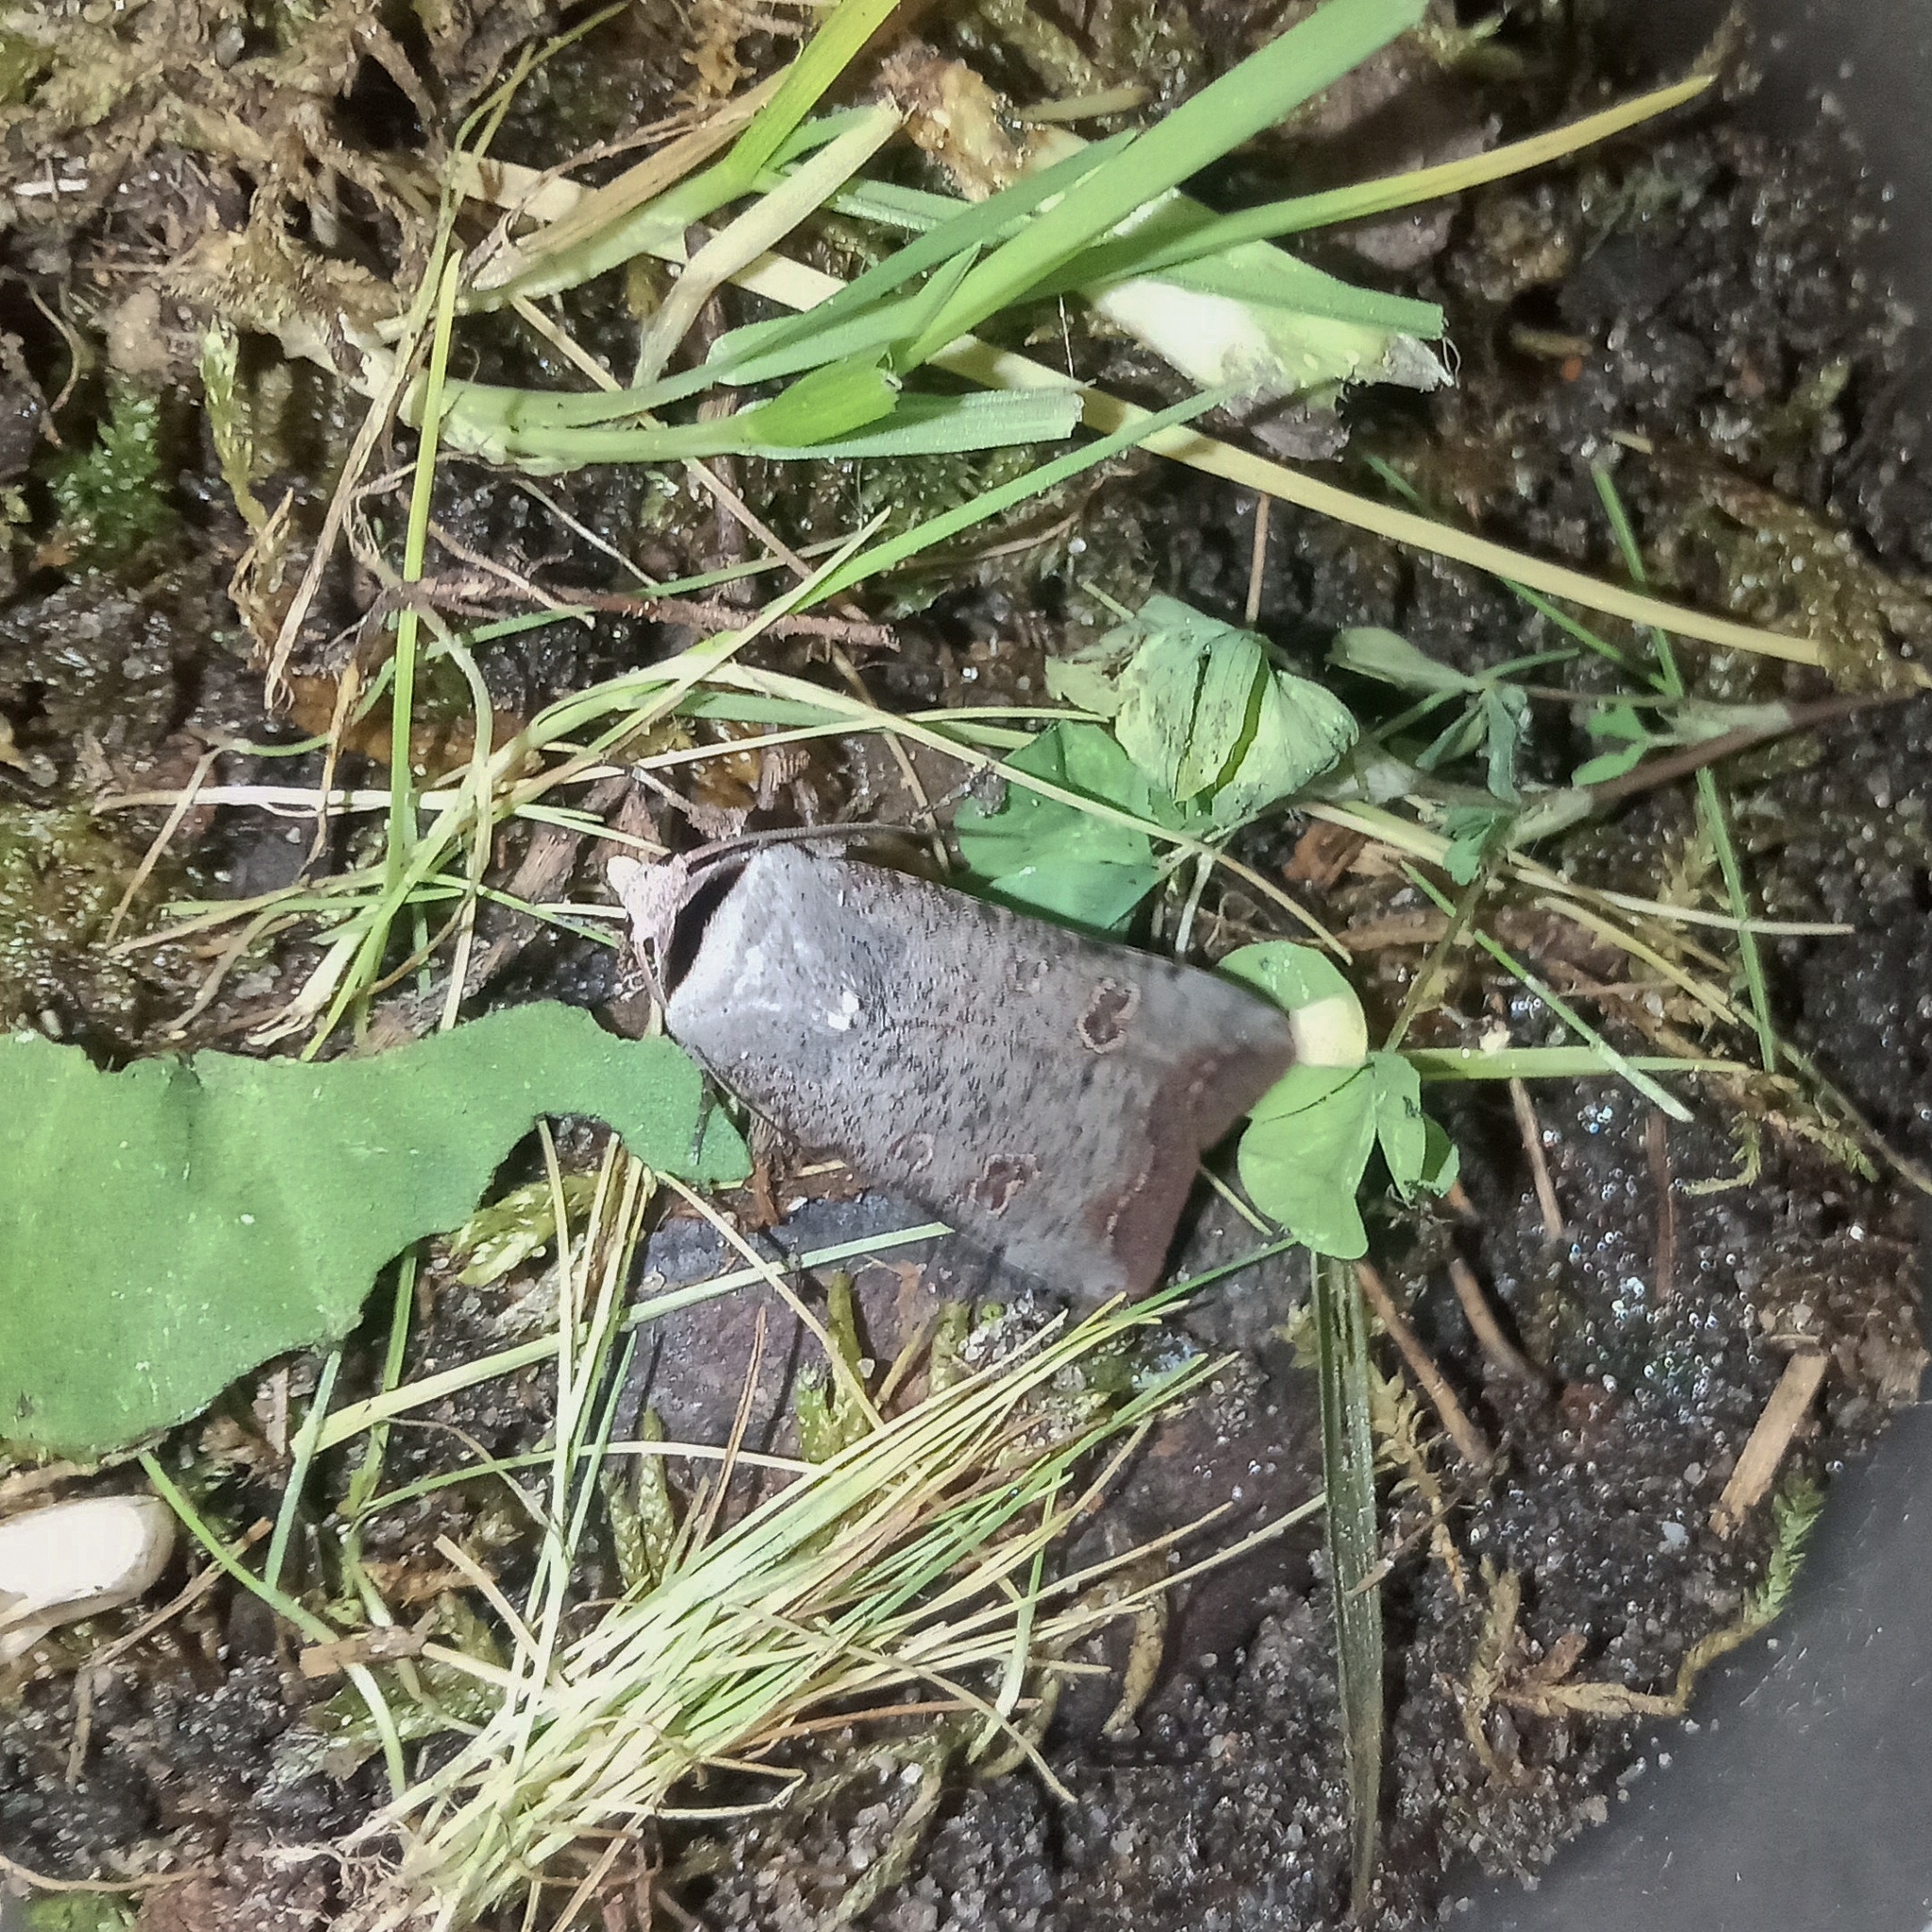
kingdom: Animalia
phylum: Arthropoda
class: Insecta
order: Lepidoptera
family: Noctuidae
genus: Anicla
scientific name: Anicla infecta
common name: Green cutworm
